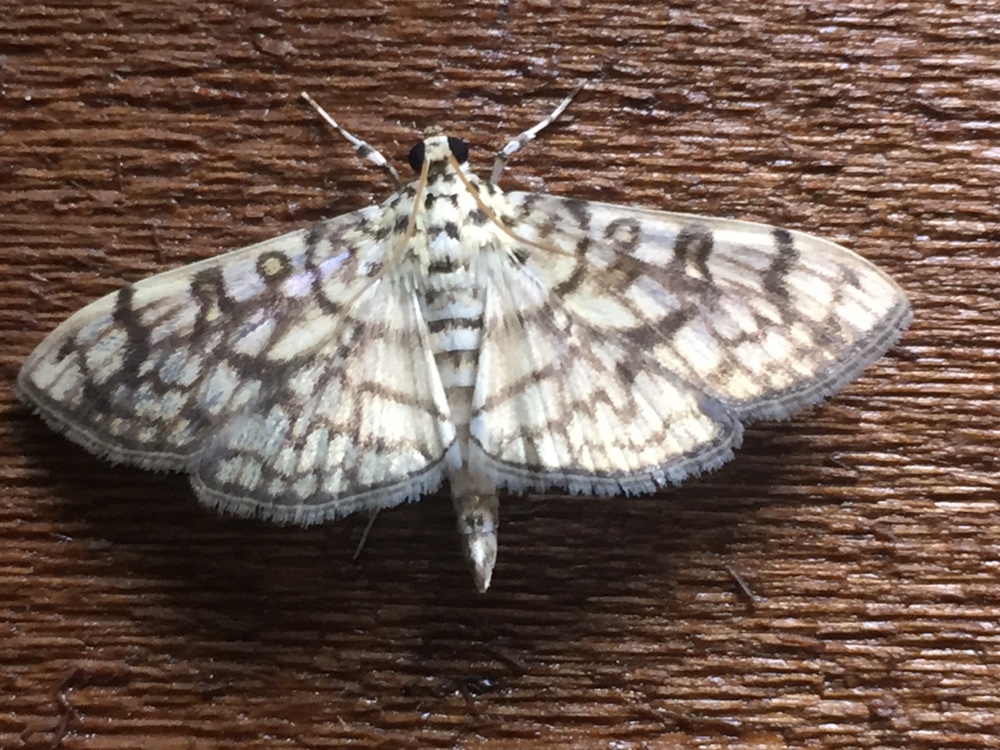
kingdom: Animalia
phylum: Arthropoda
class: Insecta
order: Lepidoptera
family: Crambidae
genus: Haritalodes
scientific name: Haritalodes derogata
